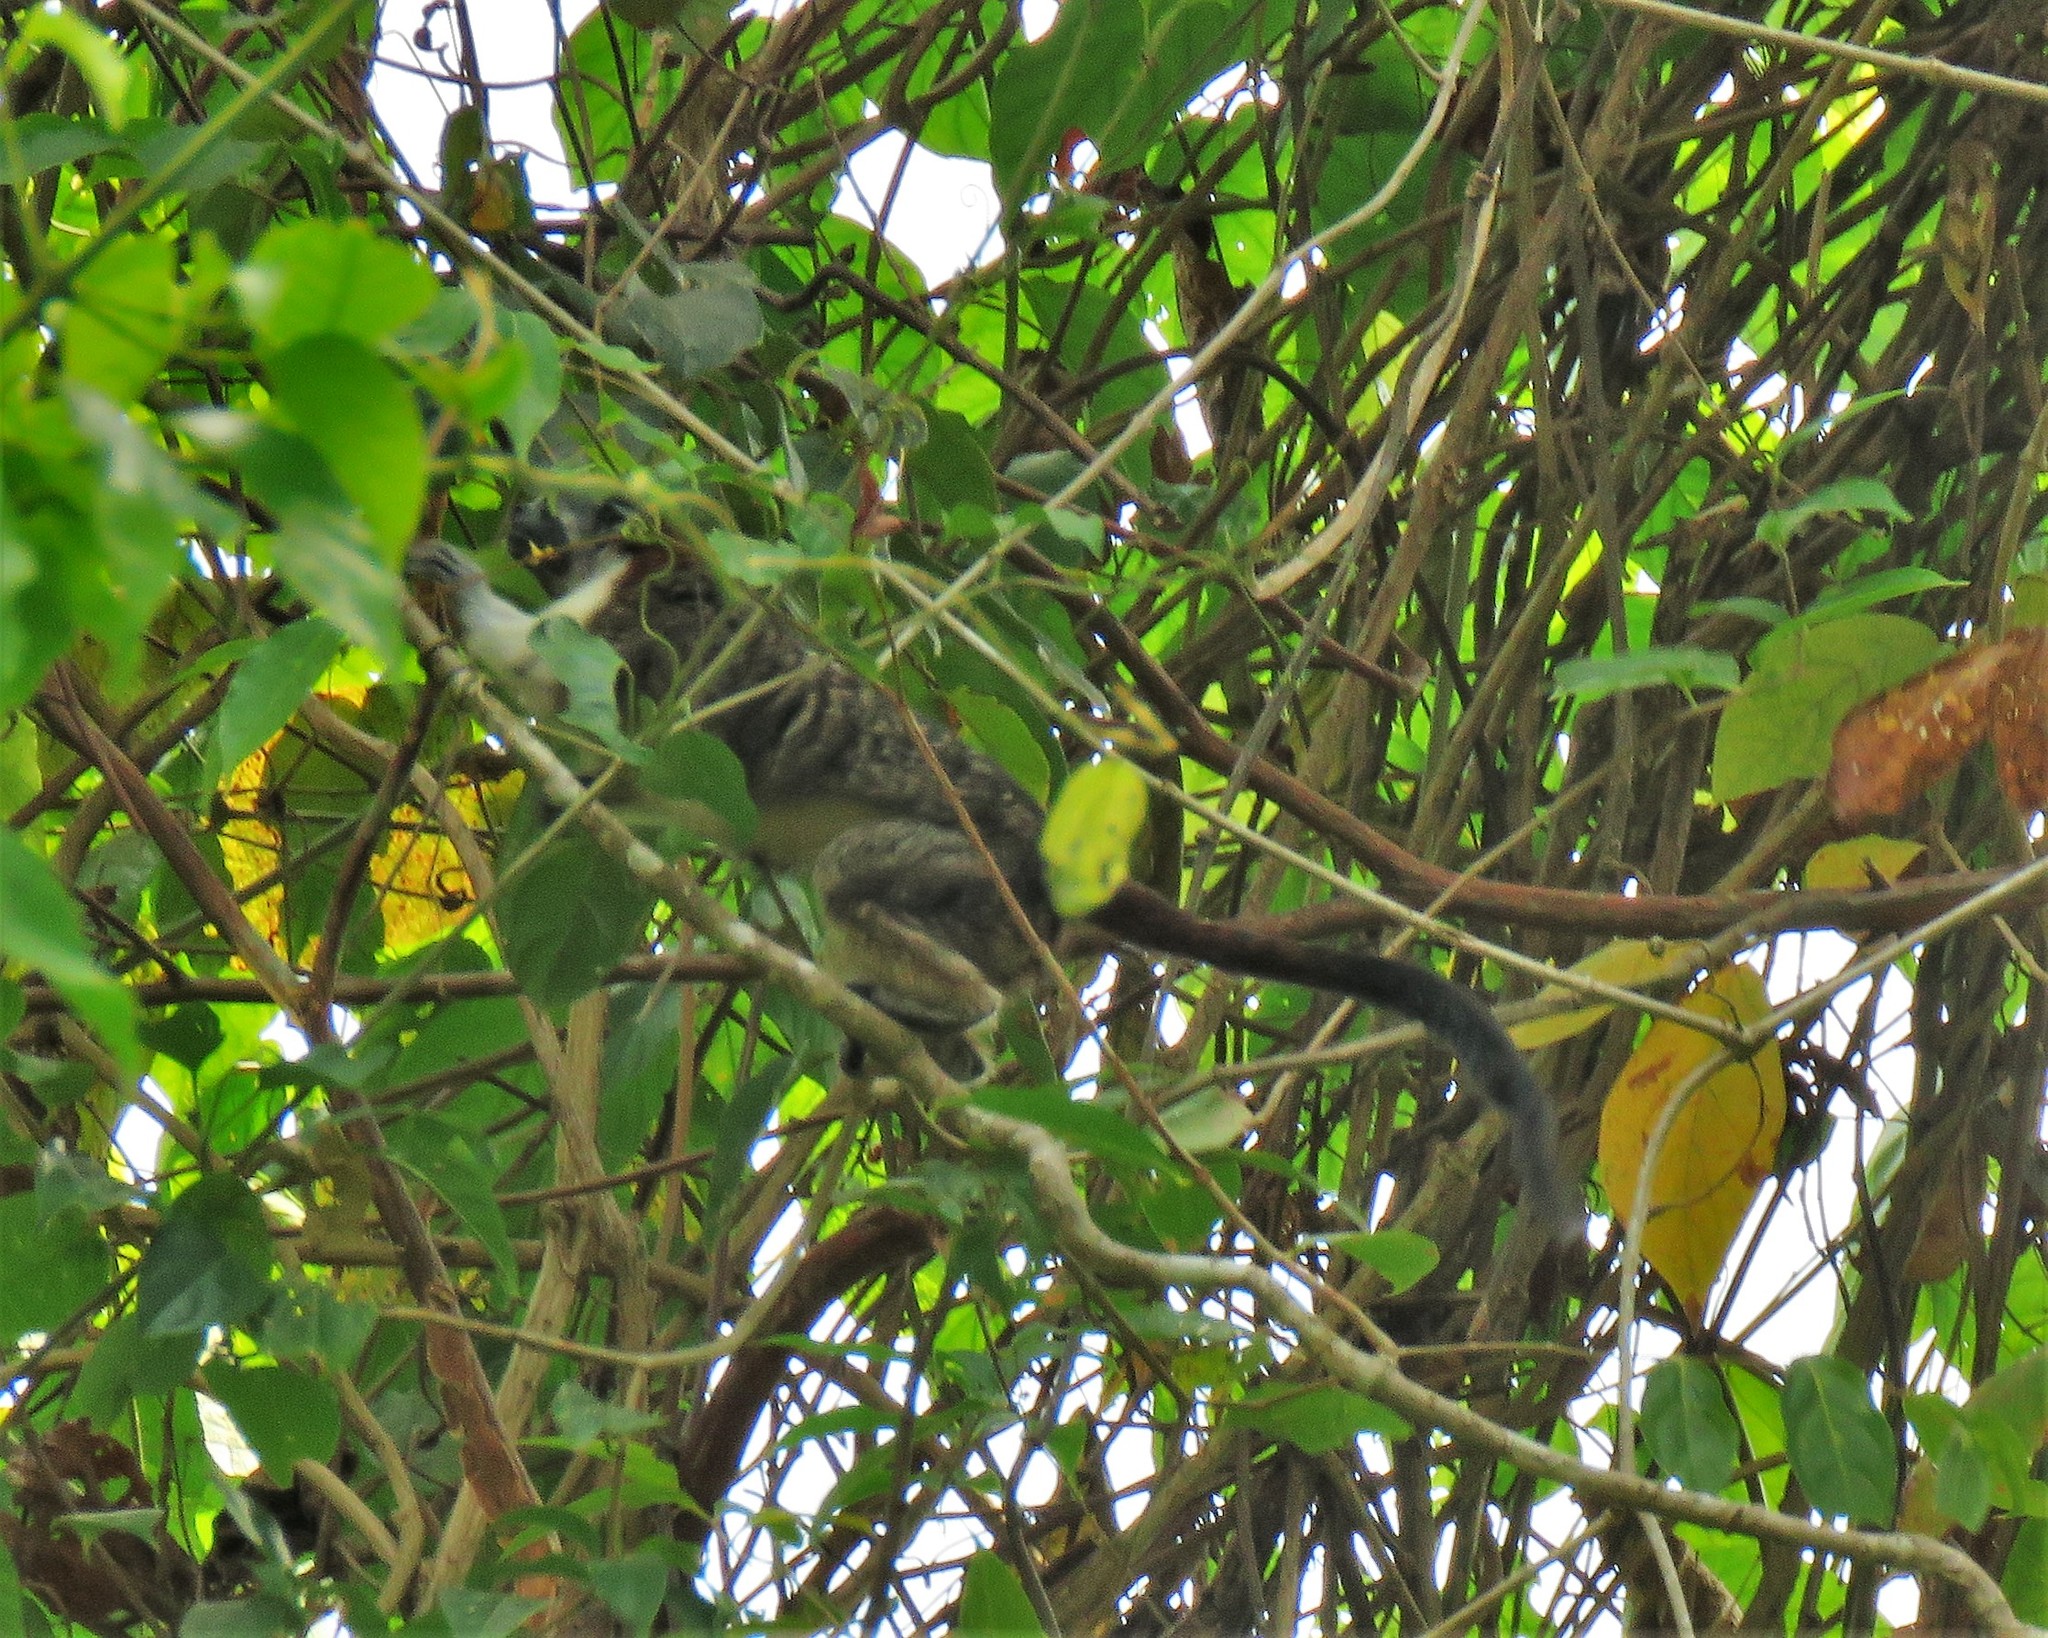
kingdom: Animalia
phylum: Chordata
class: Mammalia
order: Primates
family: Callitrichidae
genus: Saguinus
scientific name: Saguinus geoffroyi
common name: Geoffroy s tamarin
